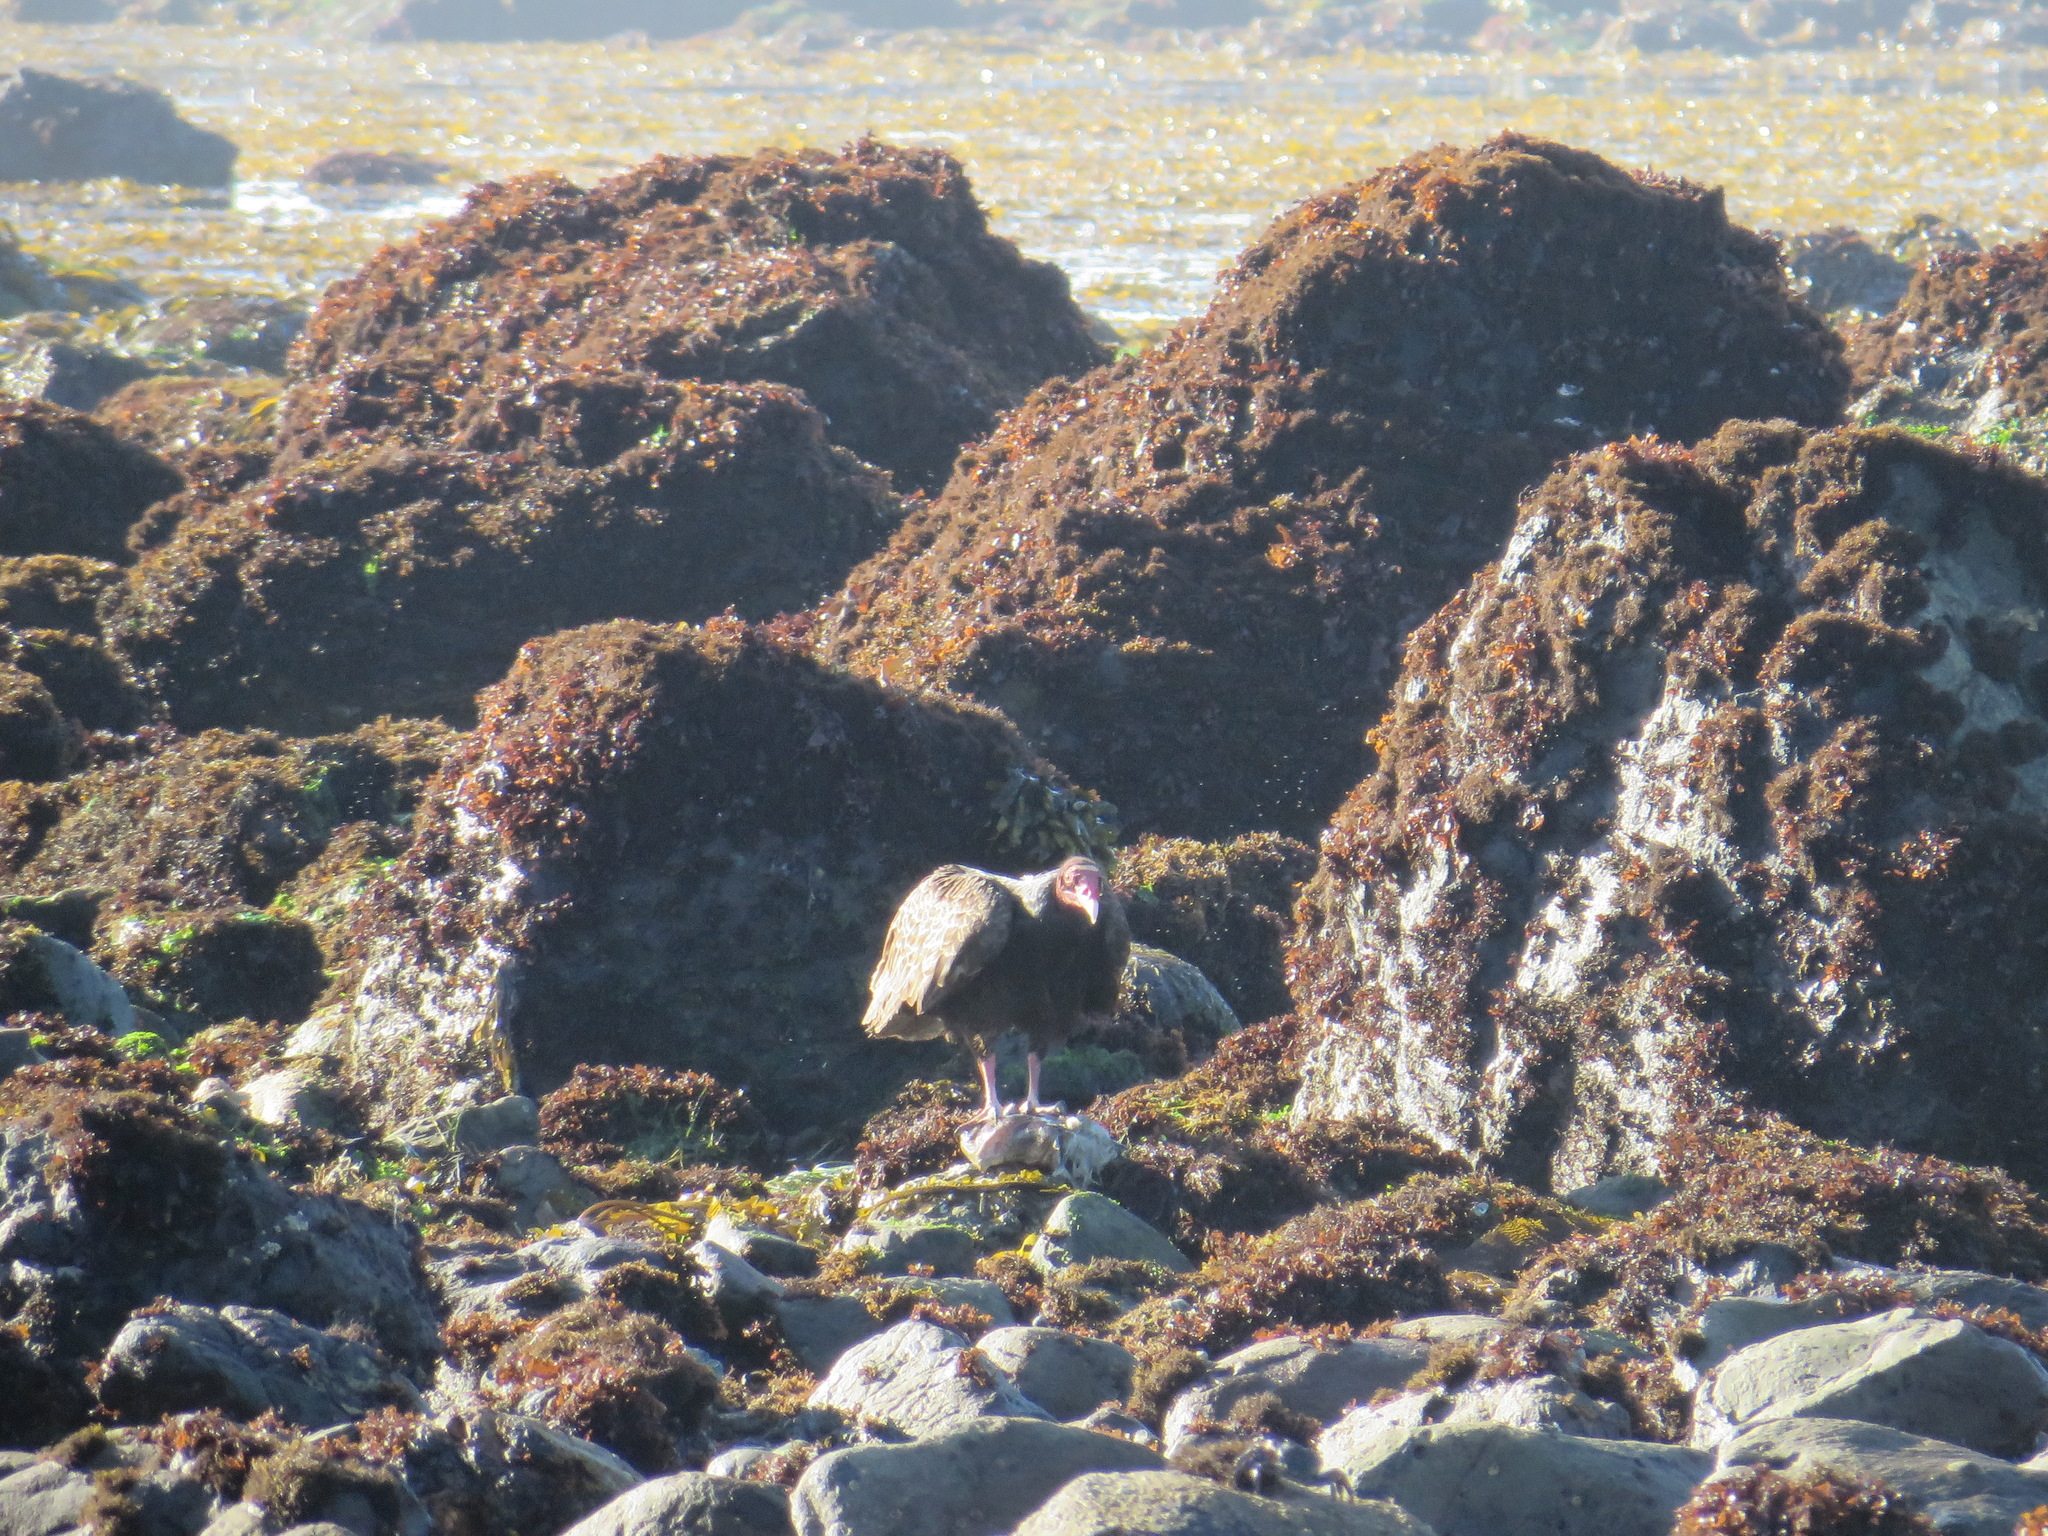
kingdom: Animalia
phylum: Chordata
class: Aves
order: Accipitriformes
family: Cathartidae
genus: Cathartes
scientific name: Cathartes aura
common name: Turkey vulture
